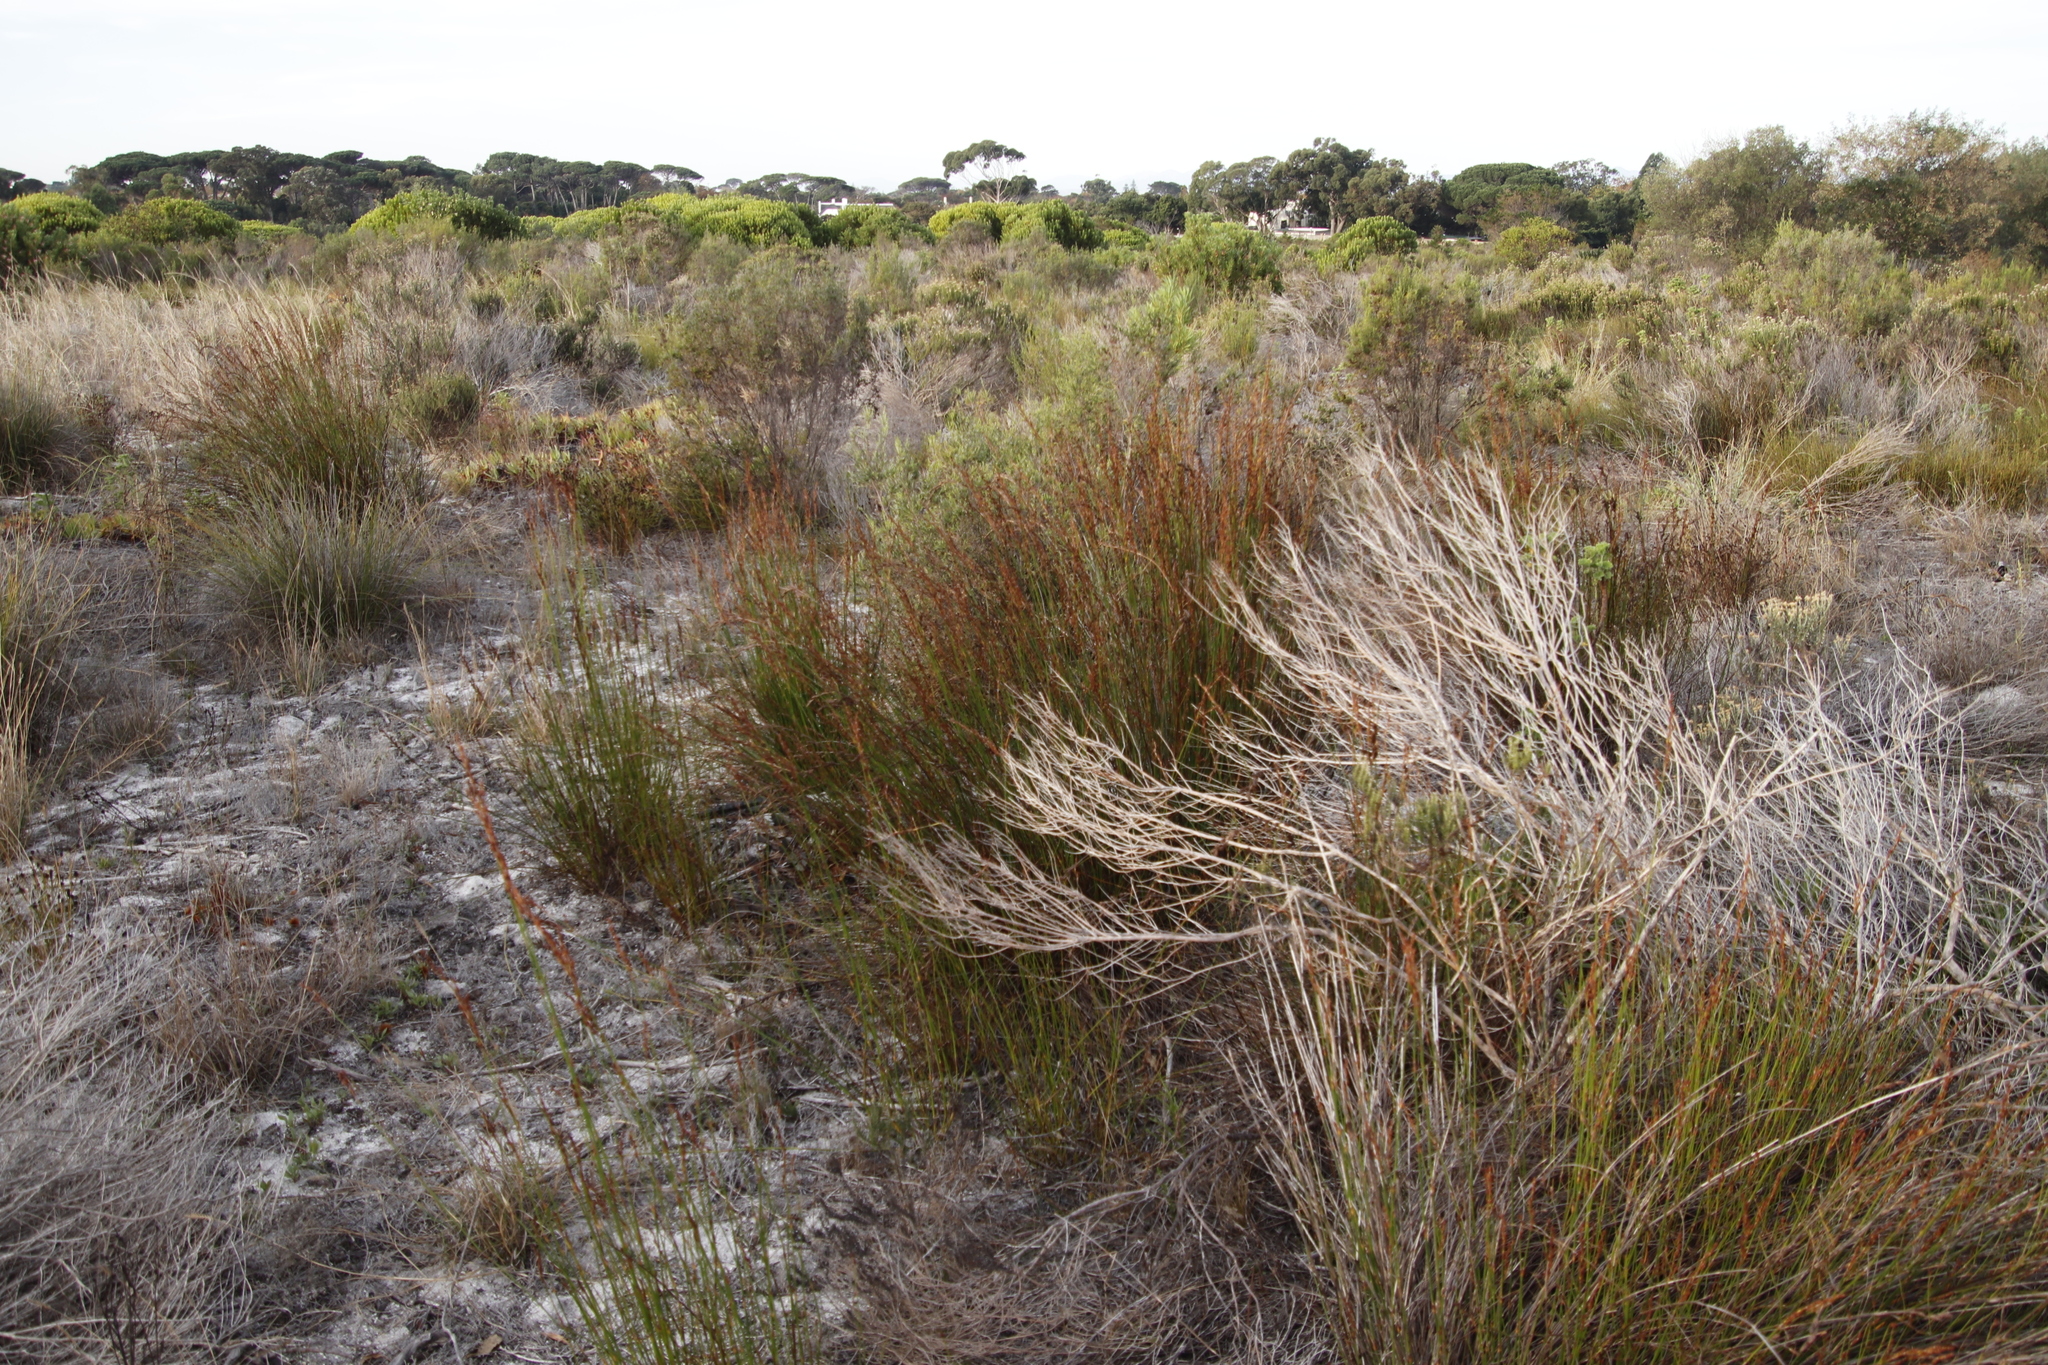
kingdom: Plantae
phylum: Tracheophyta
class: Liliopsida
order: Poales
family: Restionaceae
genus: Restio
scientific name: Restio bifurcus
